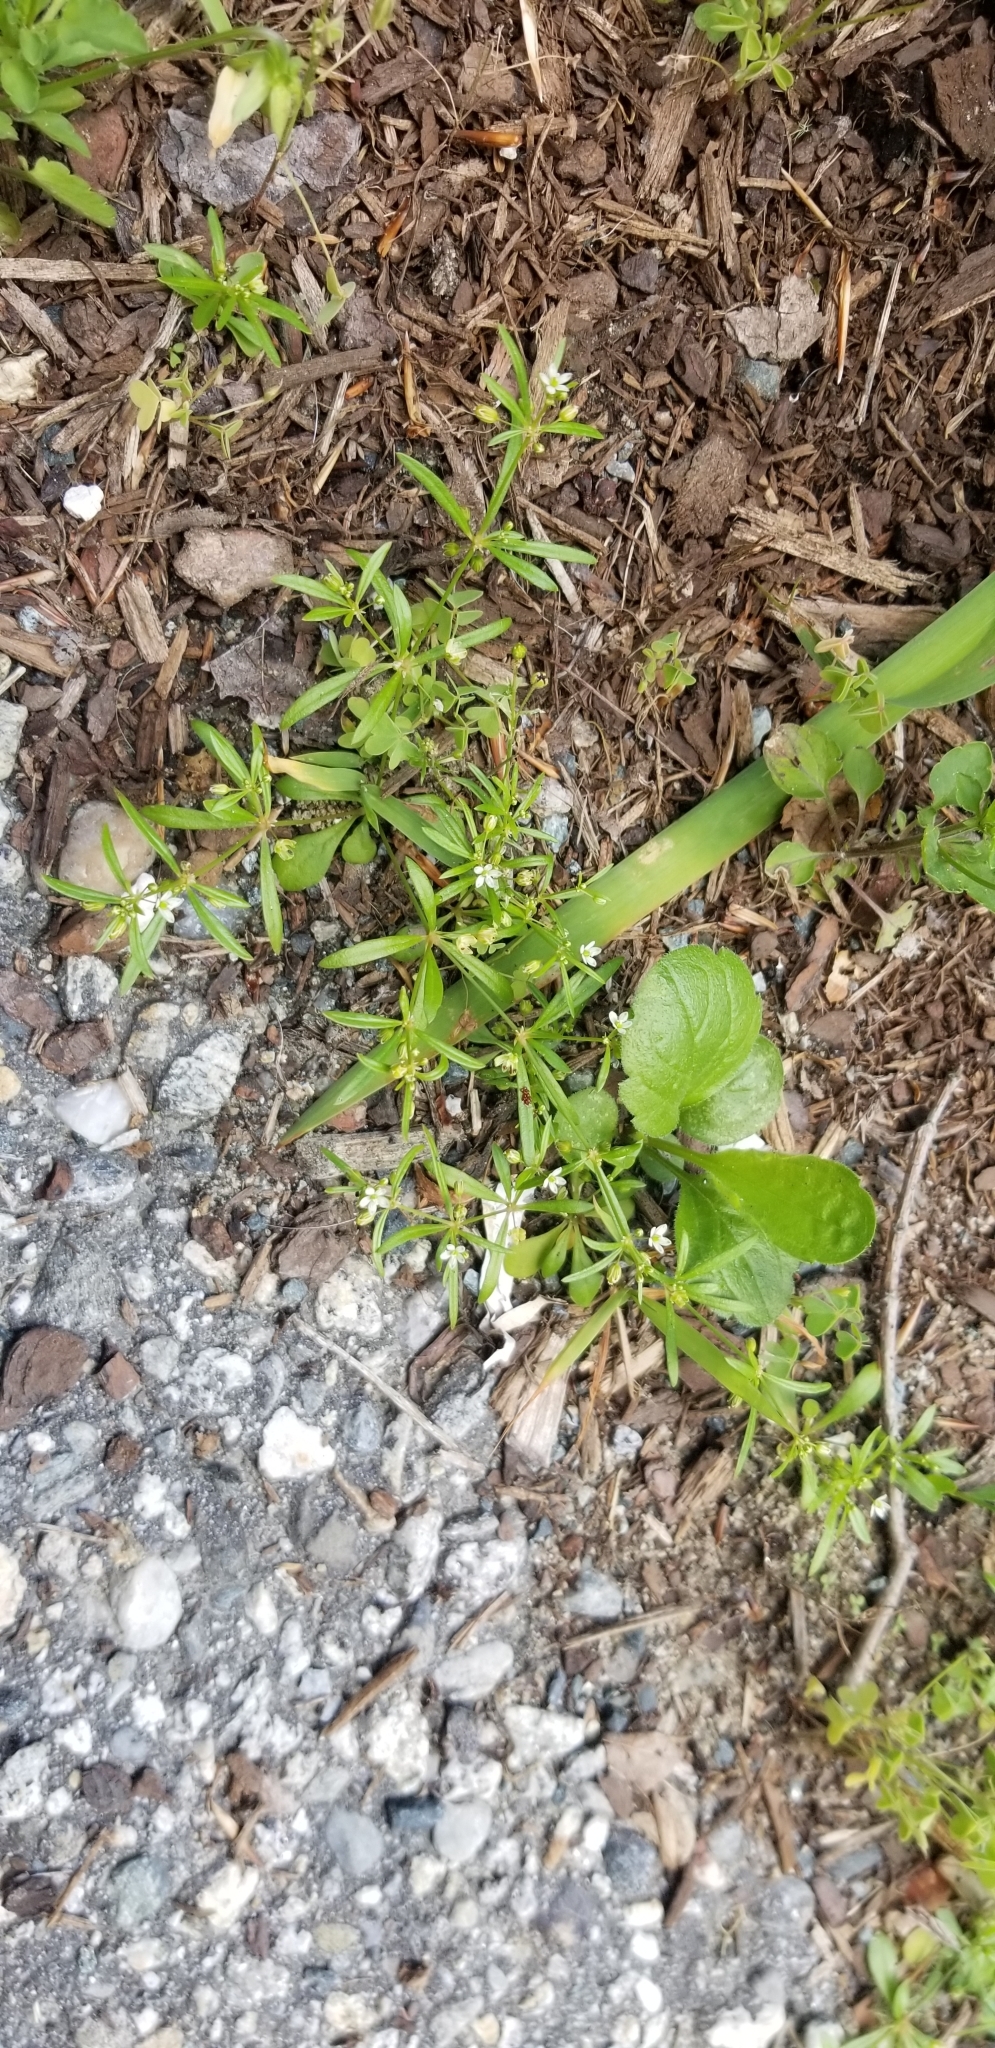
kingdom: Plantae
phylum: Tracheophyta
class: Magnoliopsida
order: Caryophyllales
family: Molluginaceae
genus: Mollugo
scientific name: Mollugo verticillata
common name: Green carpetweed
